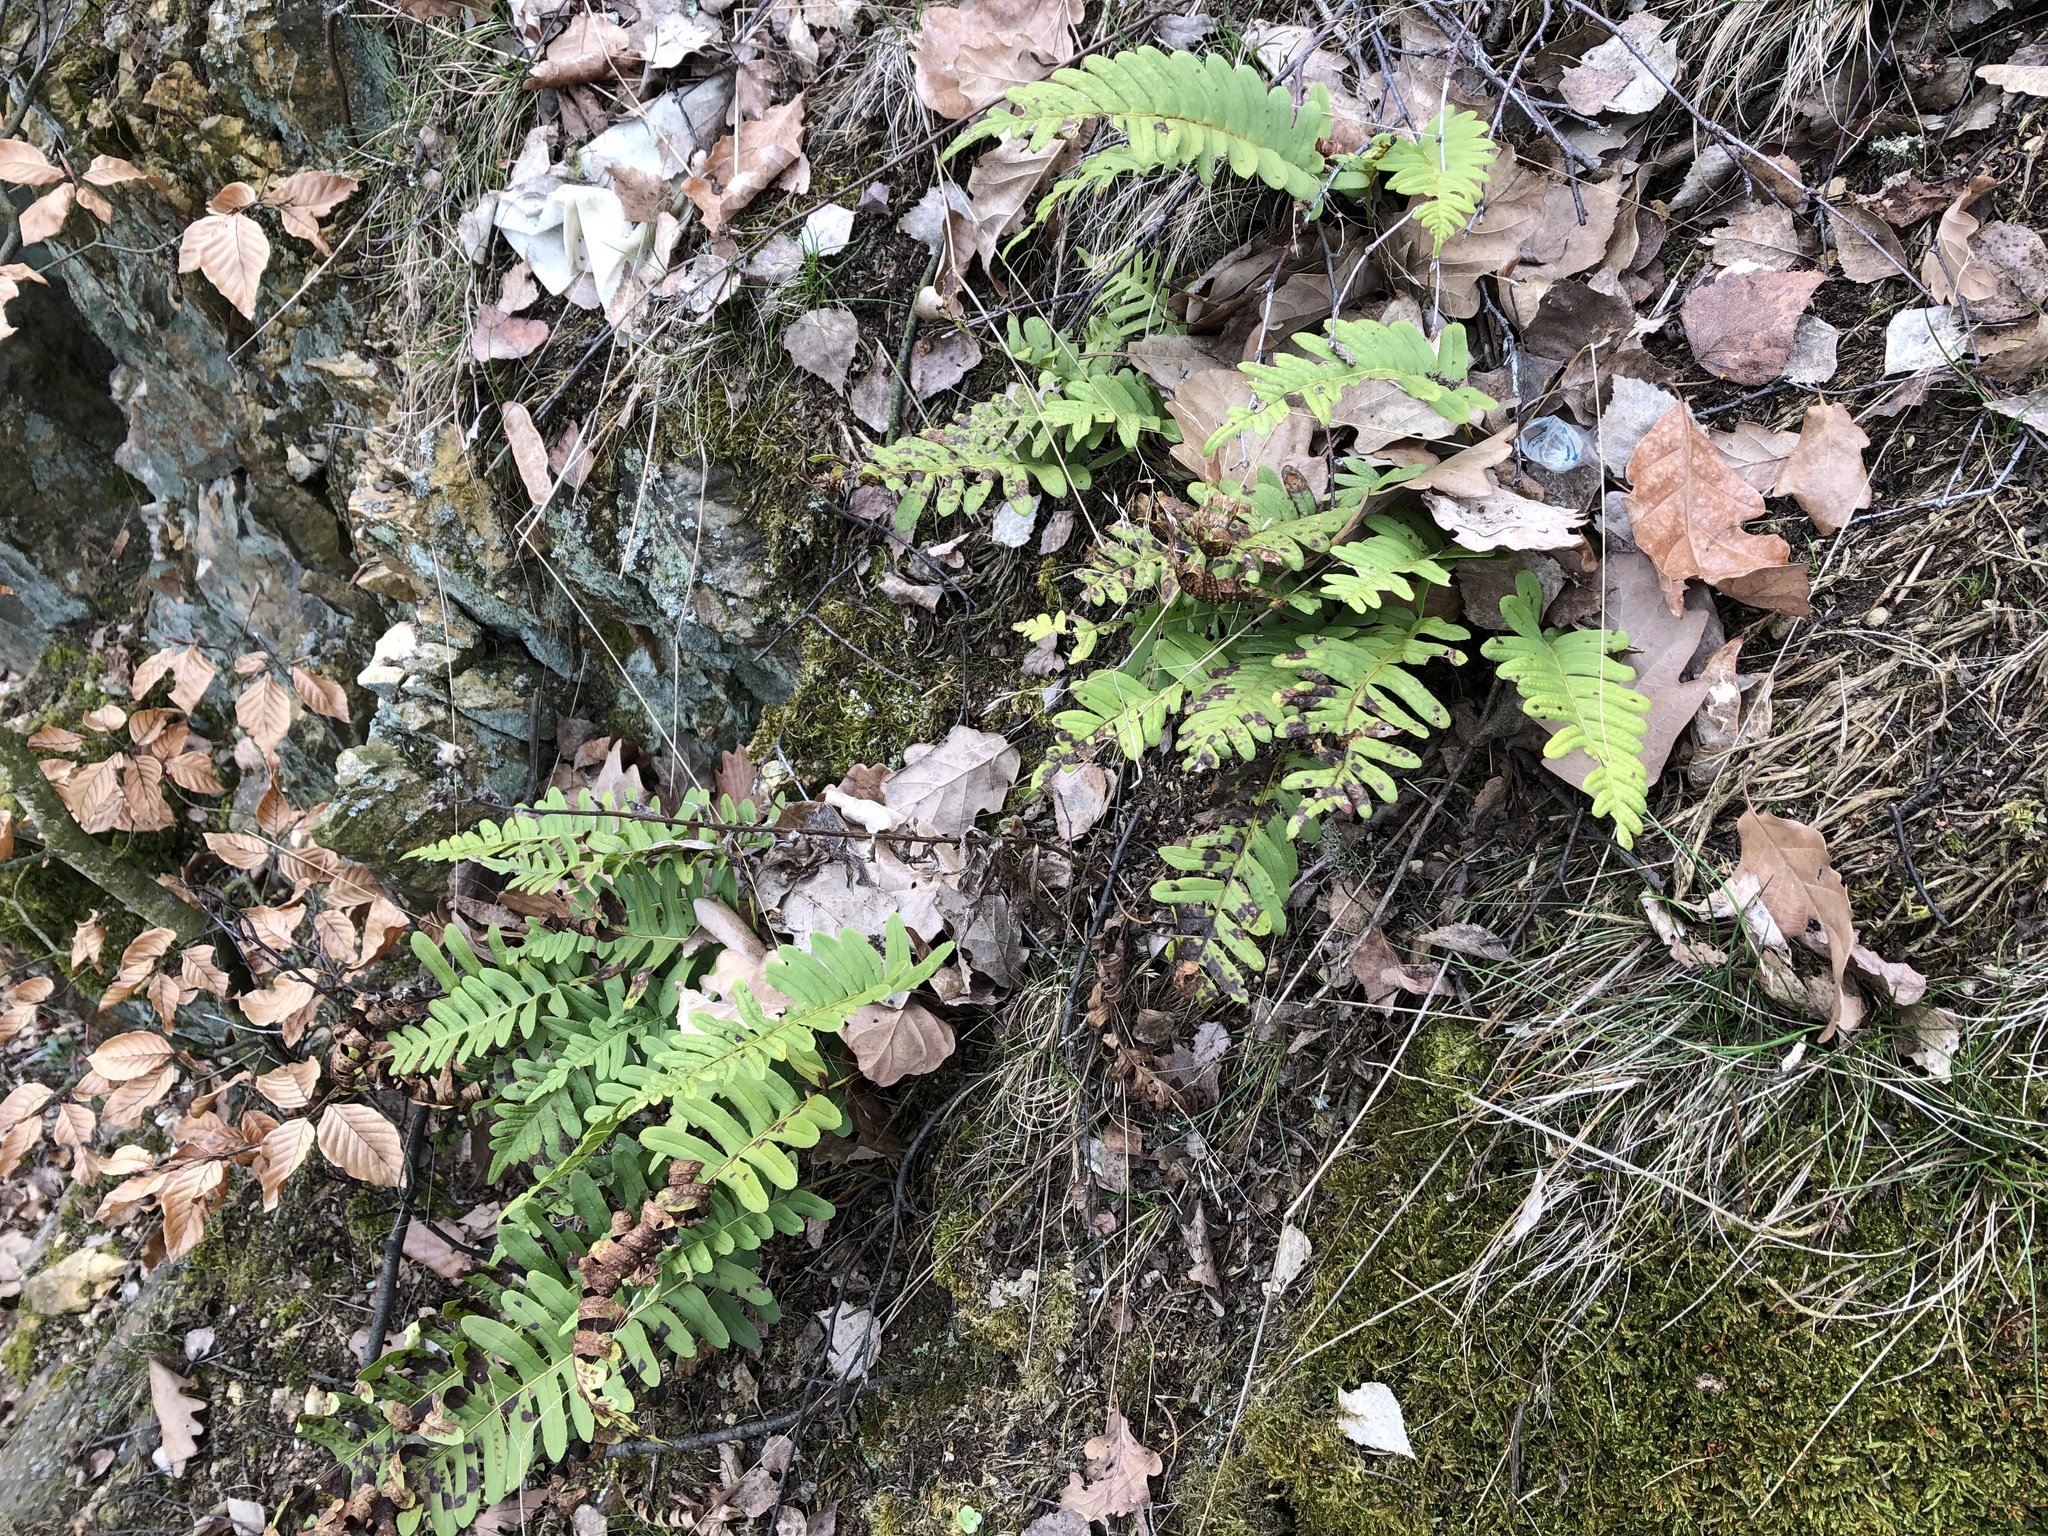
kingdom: Plantae
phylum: Tracheophyta
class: Polypodiopsida
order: Polypodiales
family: Polypodiaceae
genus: Polypodium
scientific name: Polypodium vulgare
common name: Common polypody
